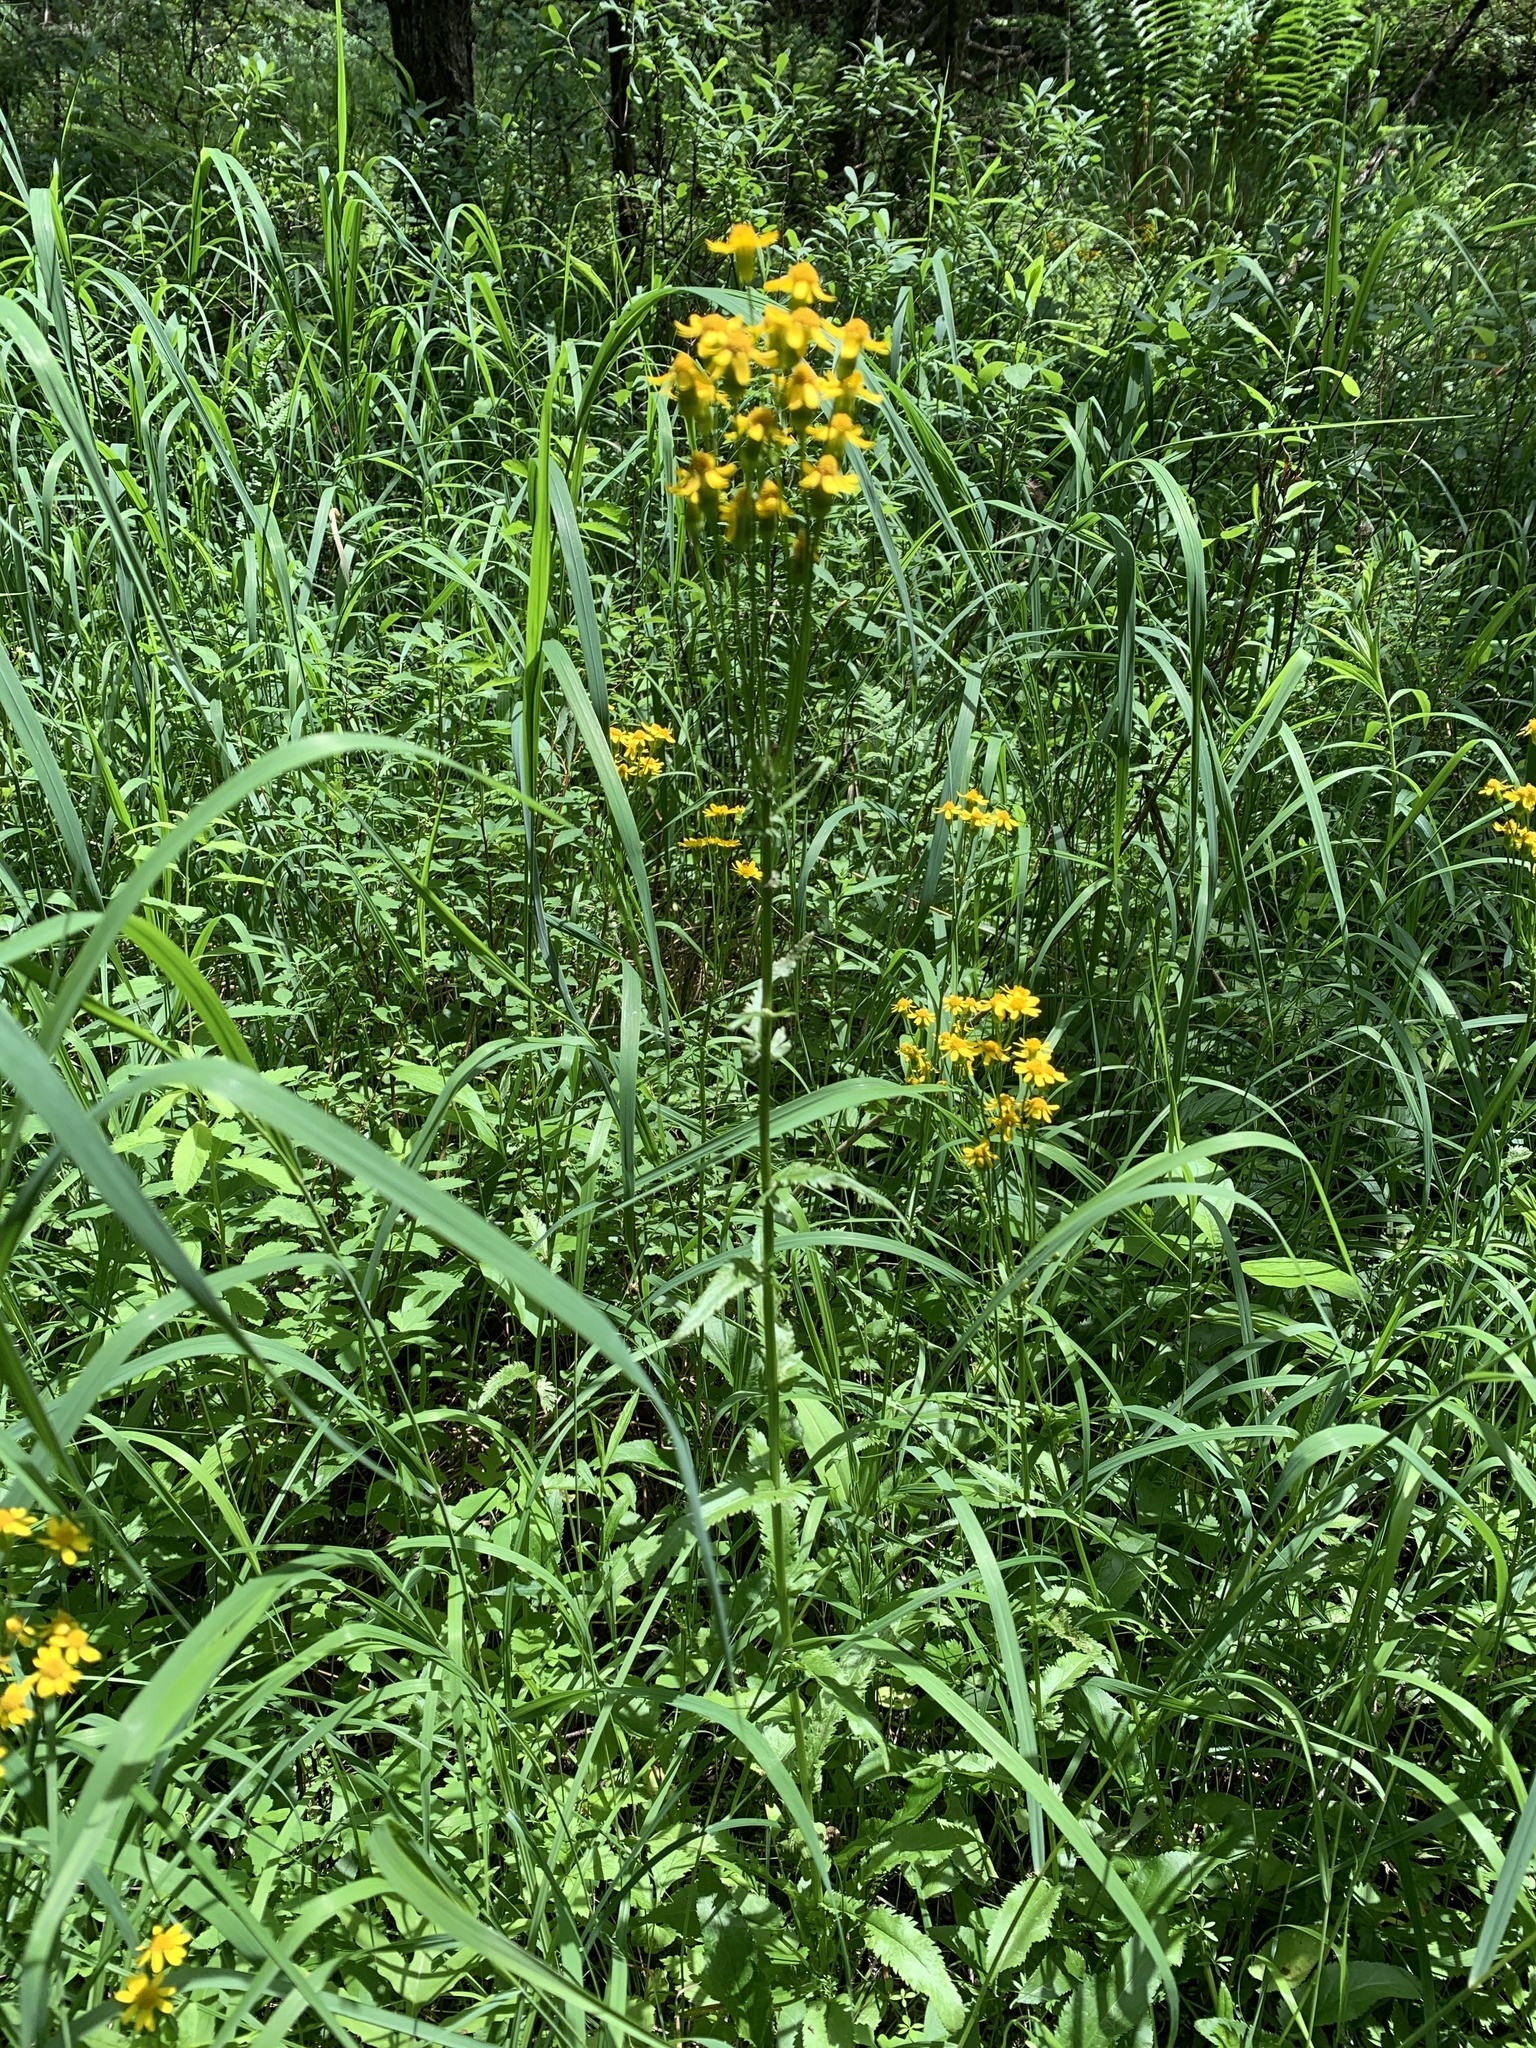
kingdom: Plantae
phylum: Tracheophyta
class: Magnoliopsida
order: Asterales
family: Asteraceae
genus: Packera
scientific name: Packera schweinitziana
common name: Schweinitz's ragwort
